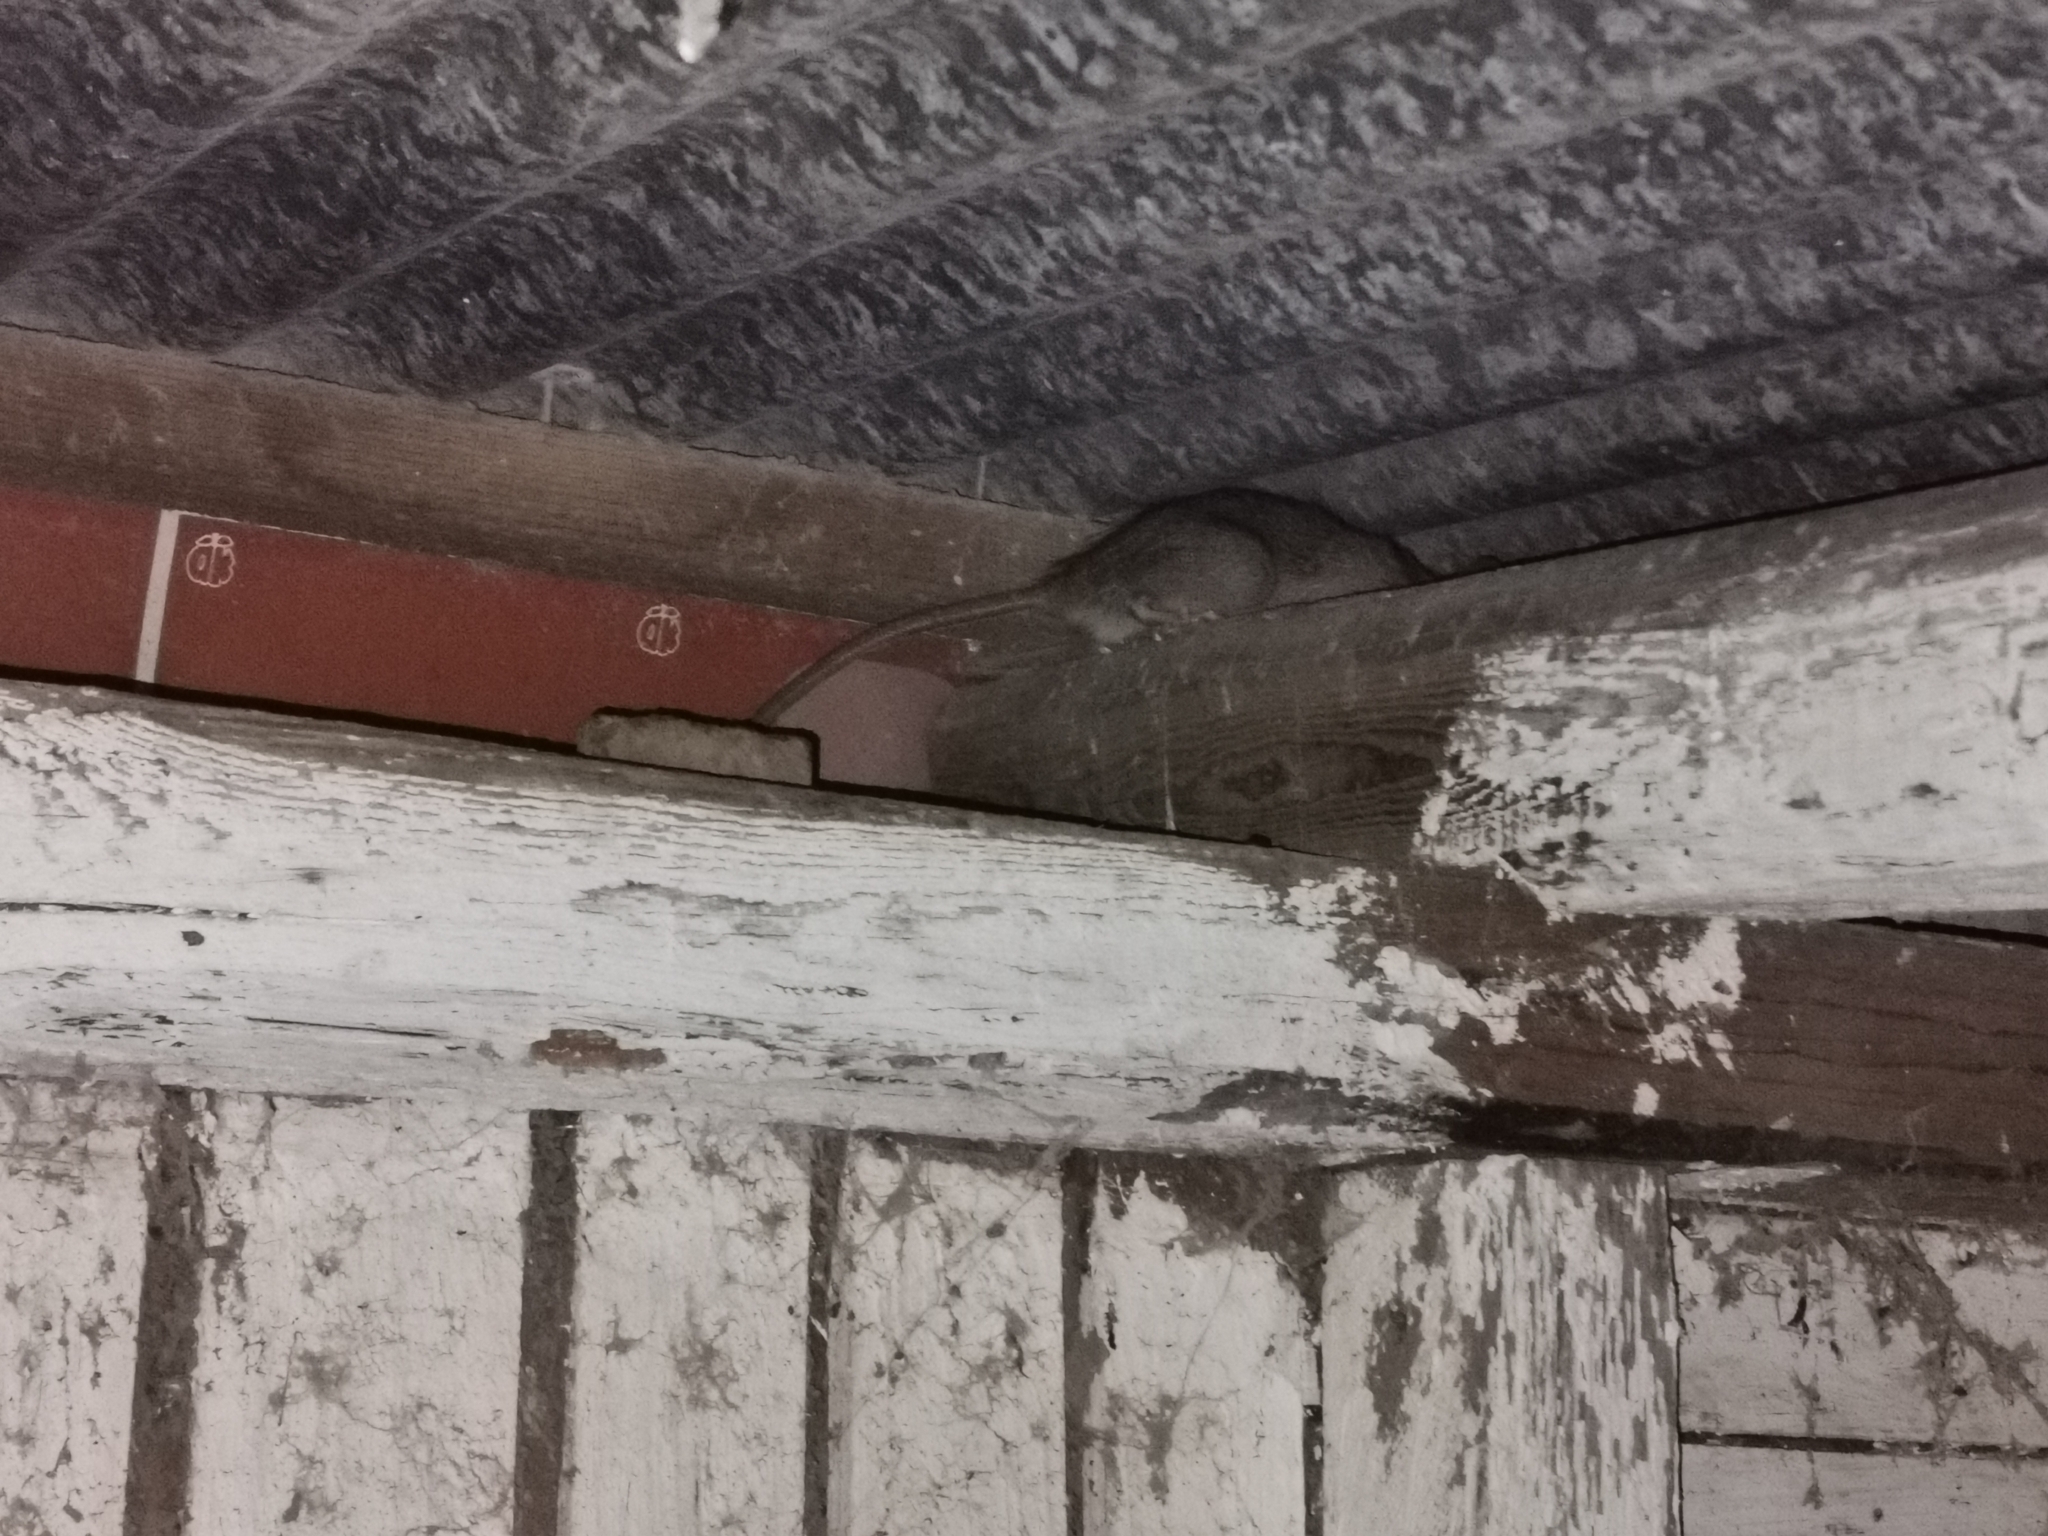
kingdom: Animalia
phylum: Chordata
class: Mammalia
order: Rodentia
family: Muridae
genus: Rattus
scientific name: Rattus rattus
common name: Black rat
